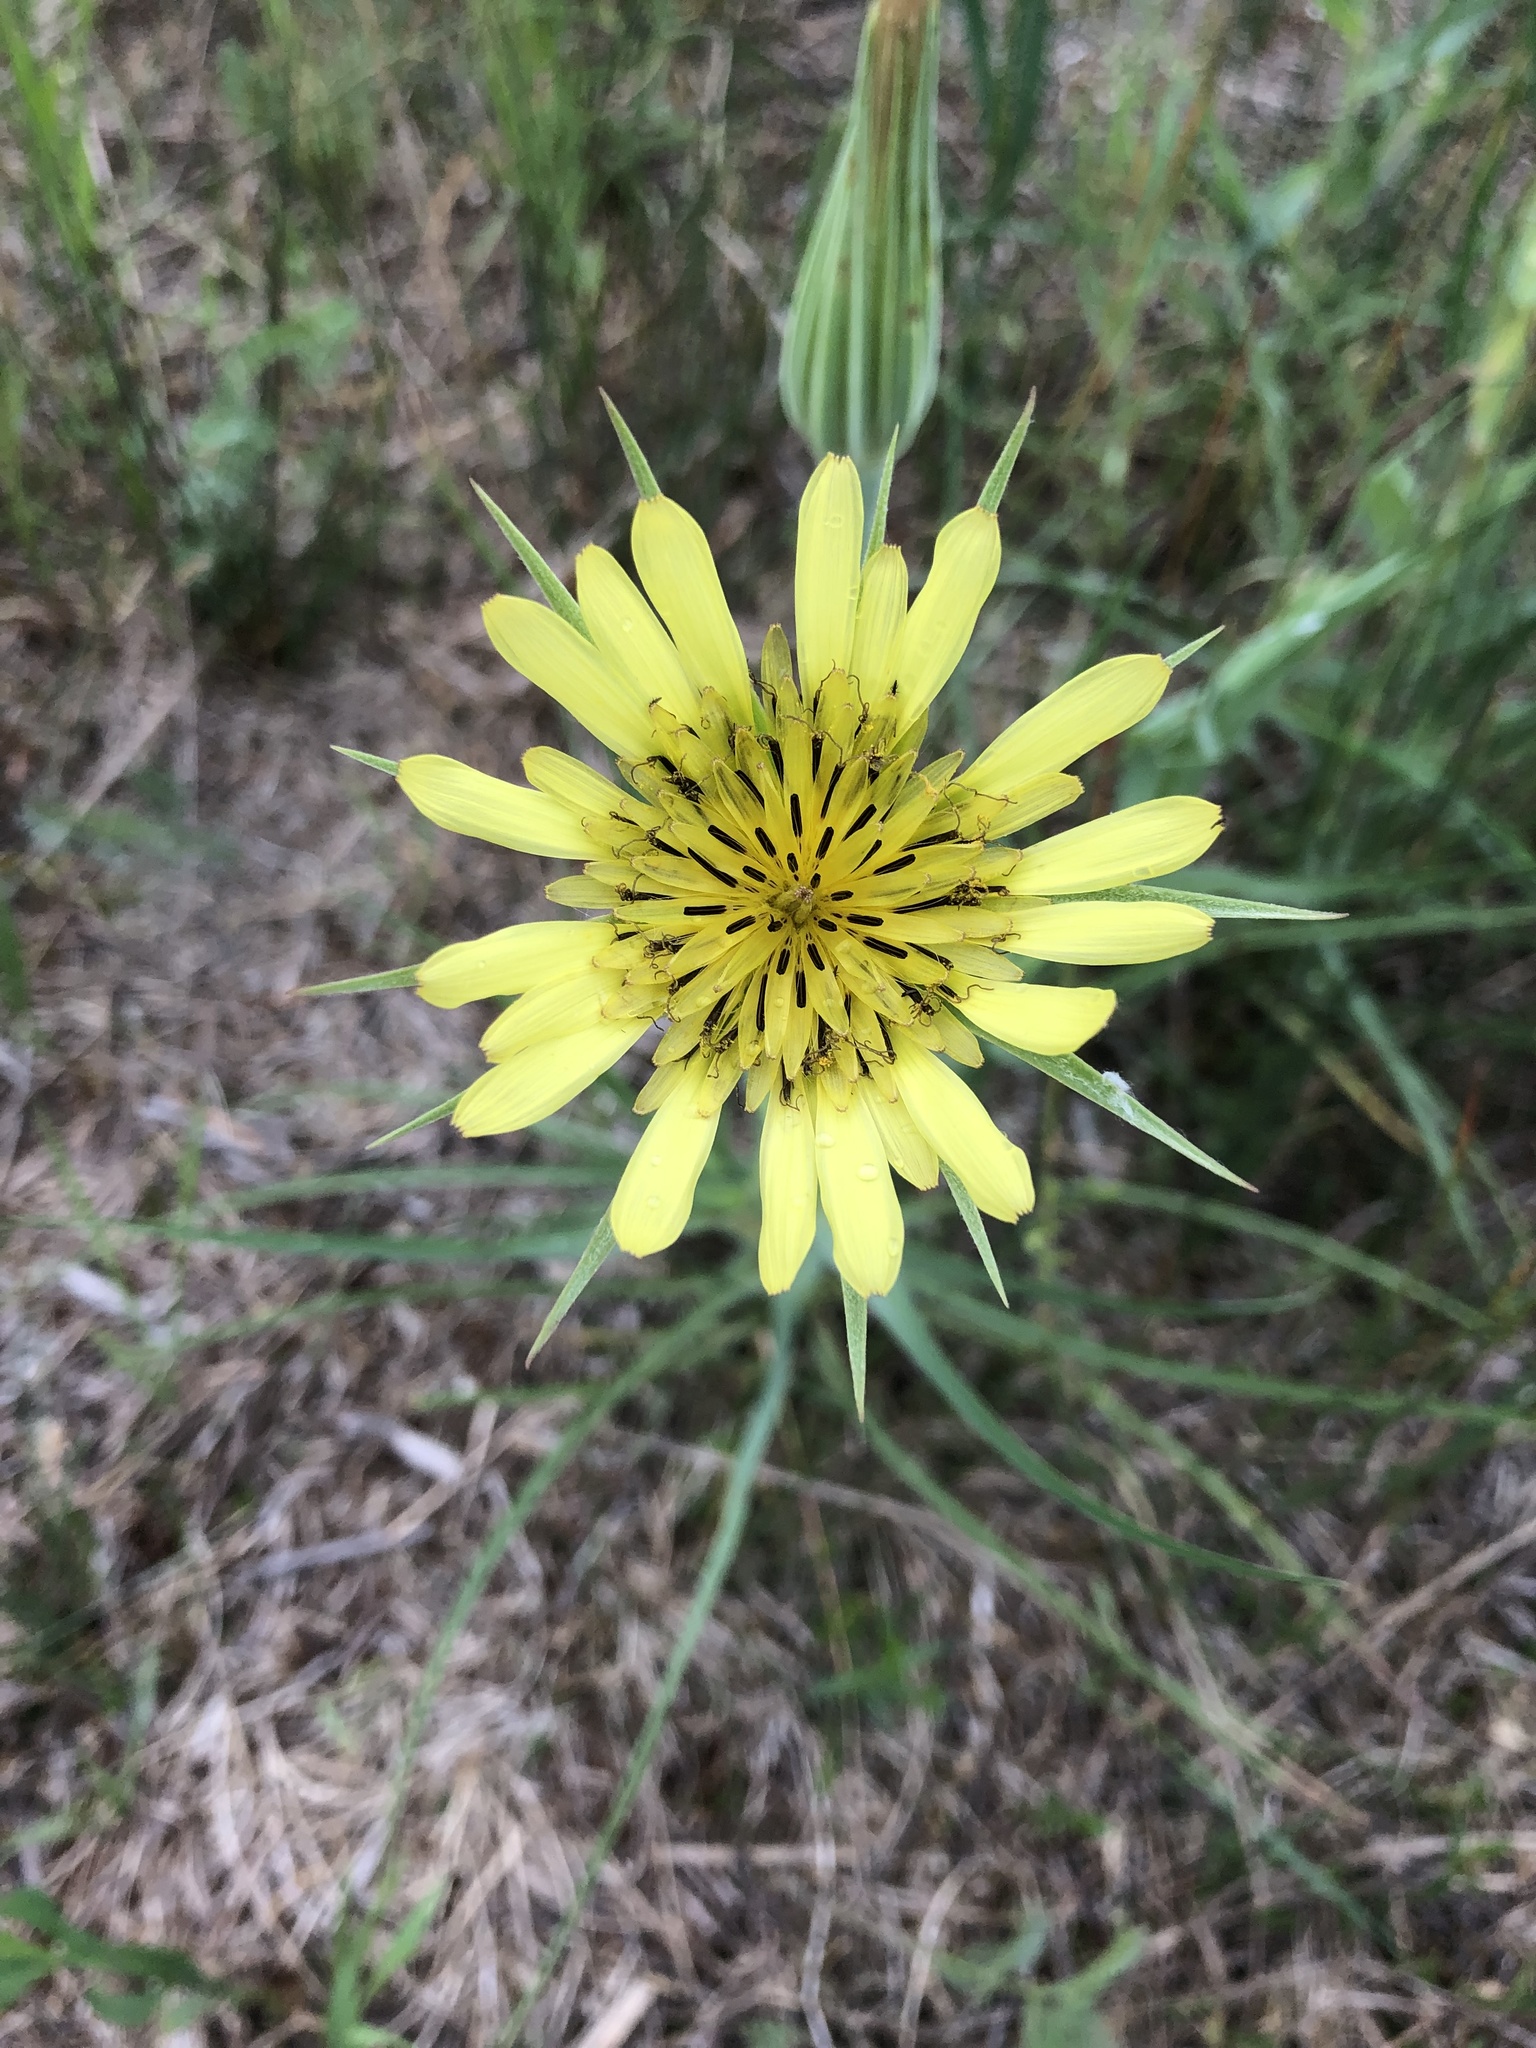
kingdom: Plantae
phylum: Tracheophyta
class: Magnoliopsida
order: Asterales
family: Asteraceae
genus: Tragopogon
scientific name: Tragopogon dubius
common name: Yellow salsify
